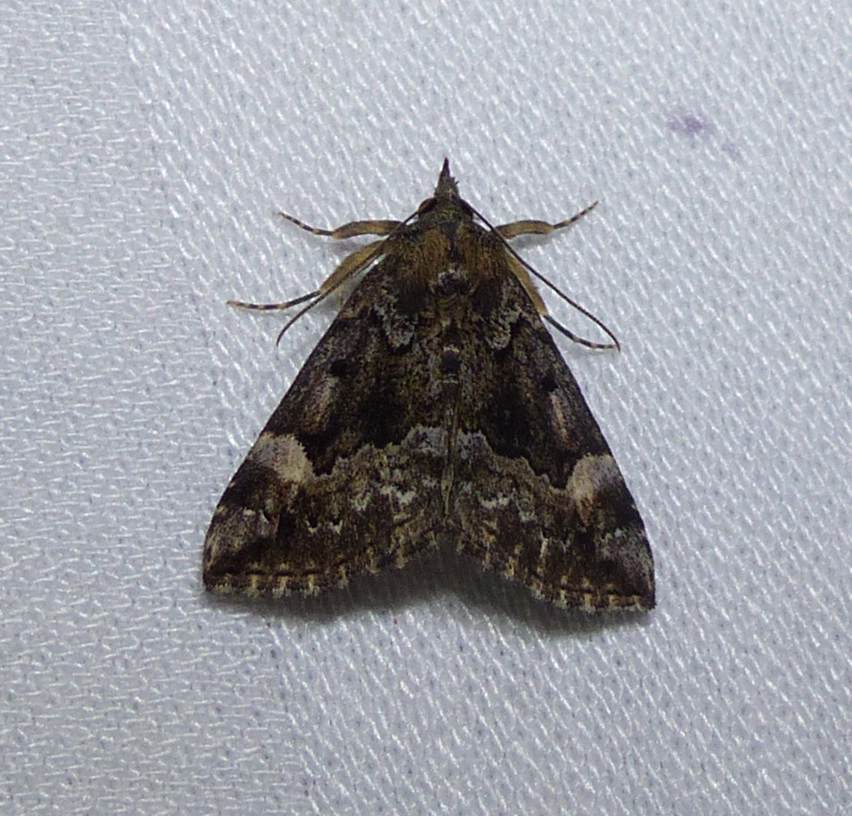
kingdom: Animalia
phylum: Arthropoda
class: Insecta
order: Lepidoptera
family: Erebidae
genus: Hypena
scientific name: Hypena palparia
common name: Mottled bomolocha moth
